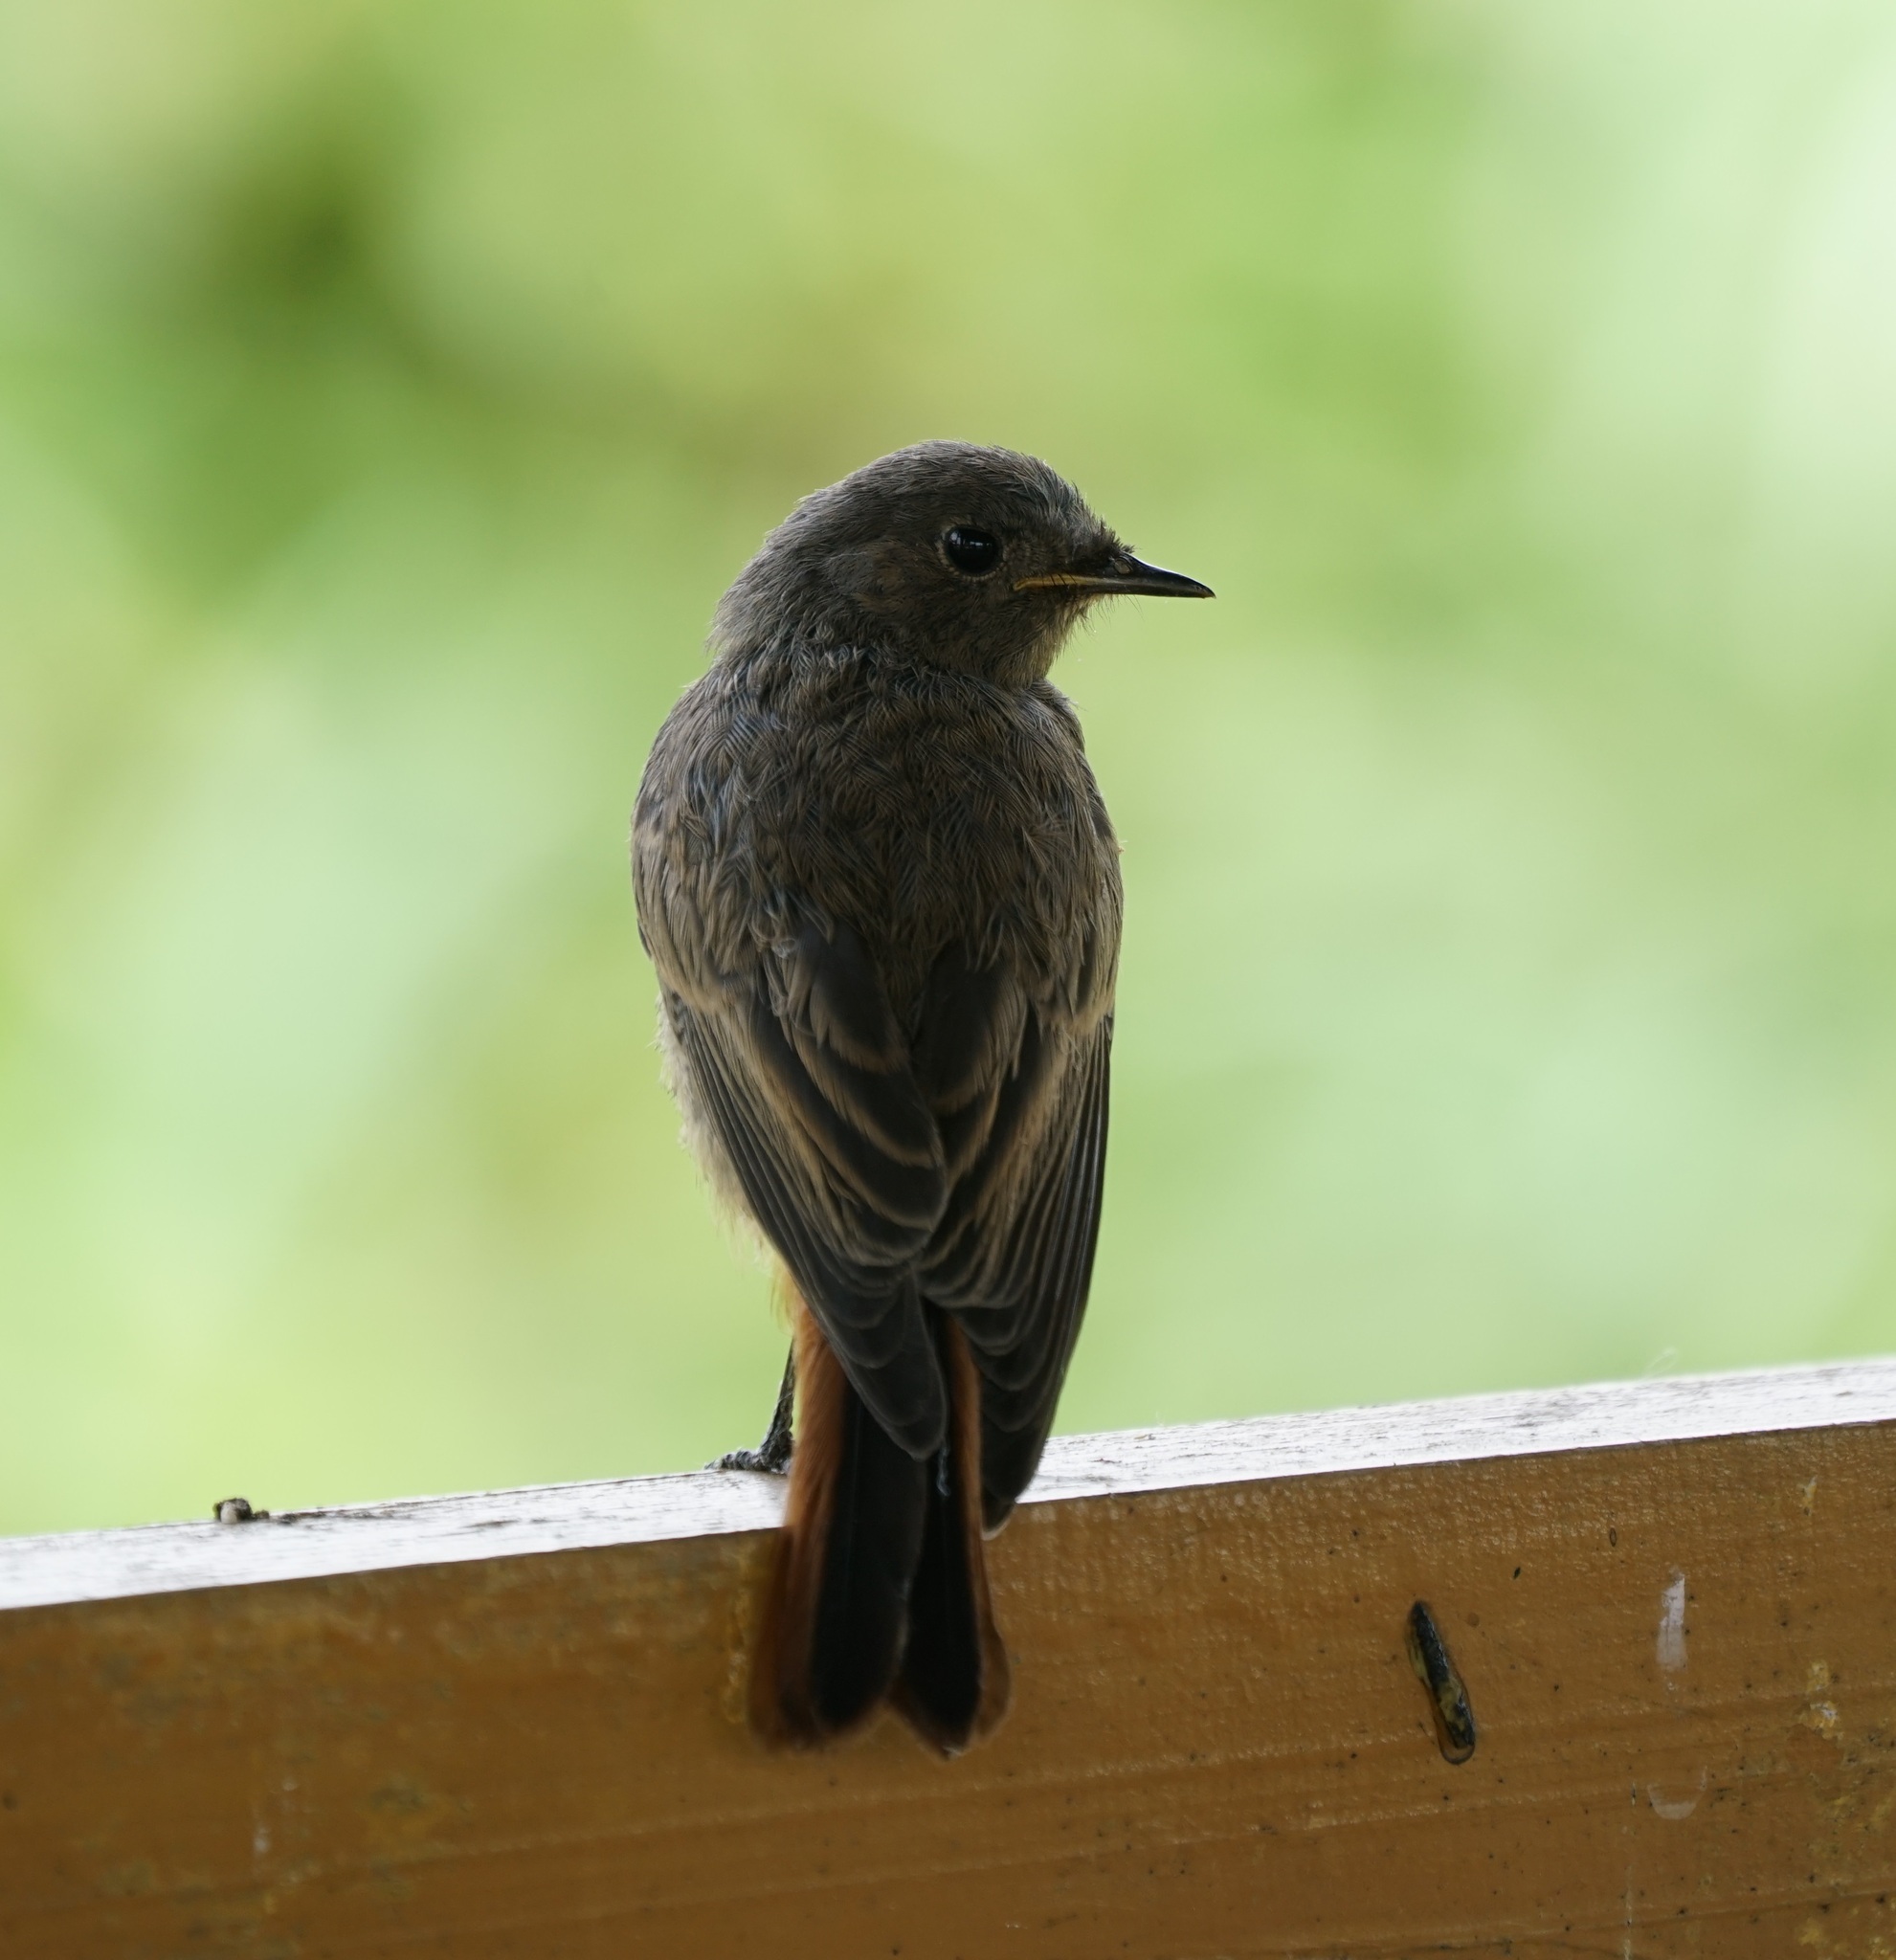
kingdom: Animalia
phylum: Chordata
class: Aves
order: Passeriformes
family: Muscicapidae
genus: Phoenicurus
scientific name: Phoenicurus ochruros
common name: Black redstart
